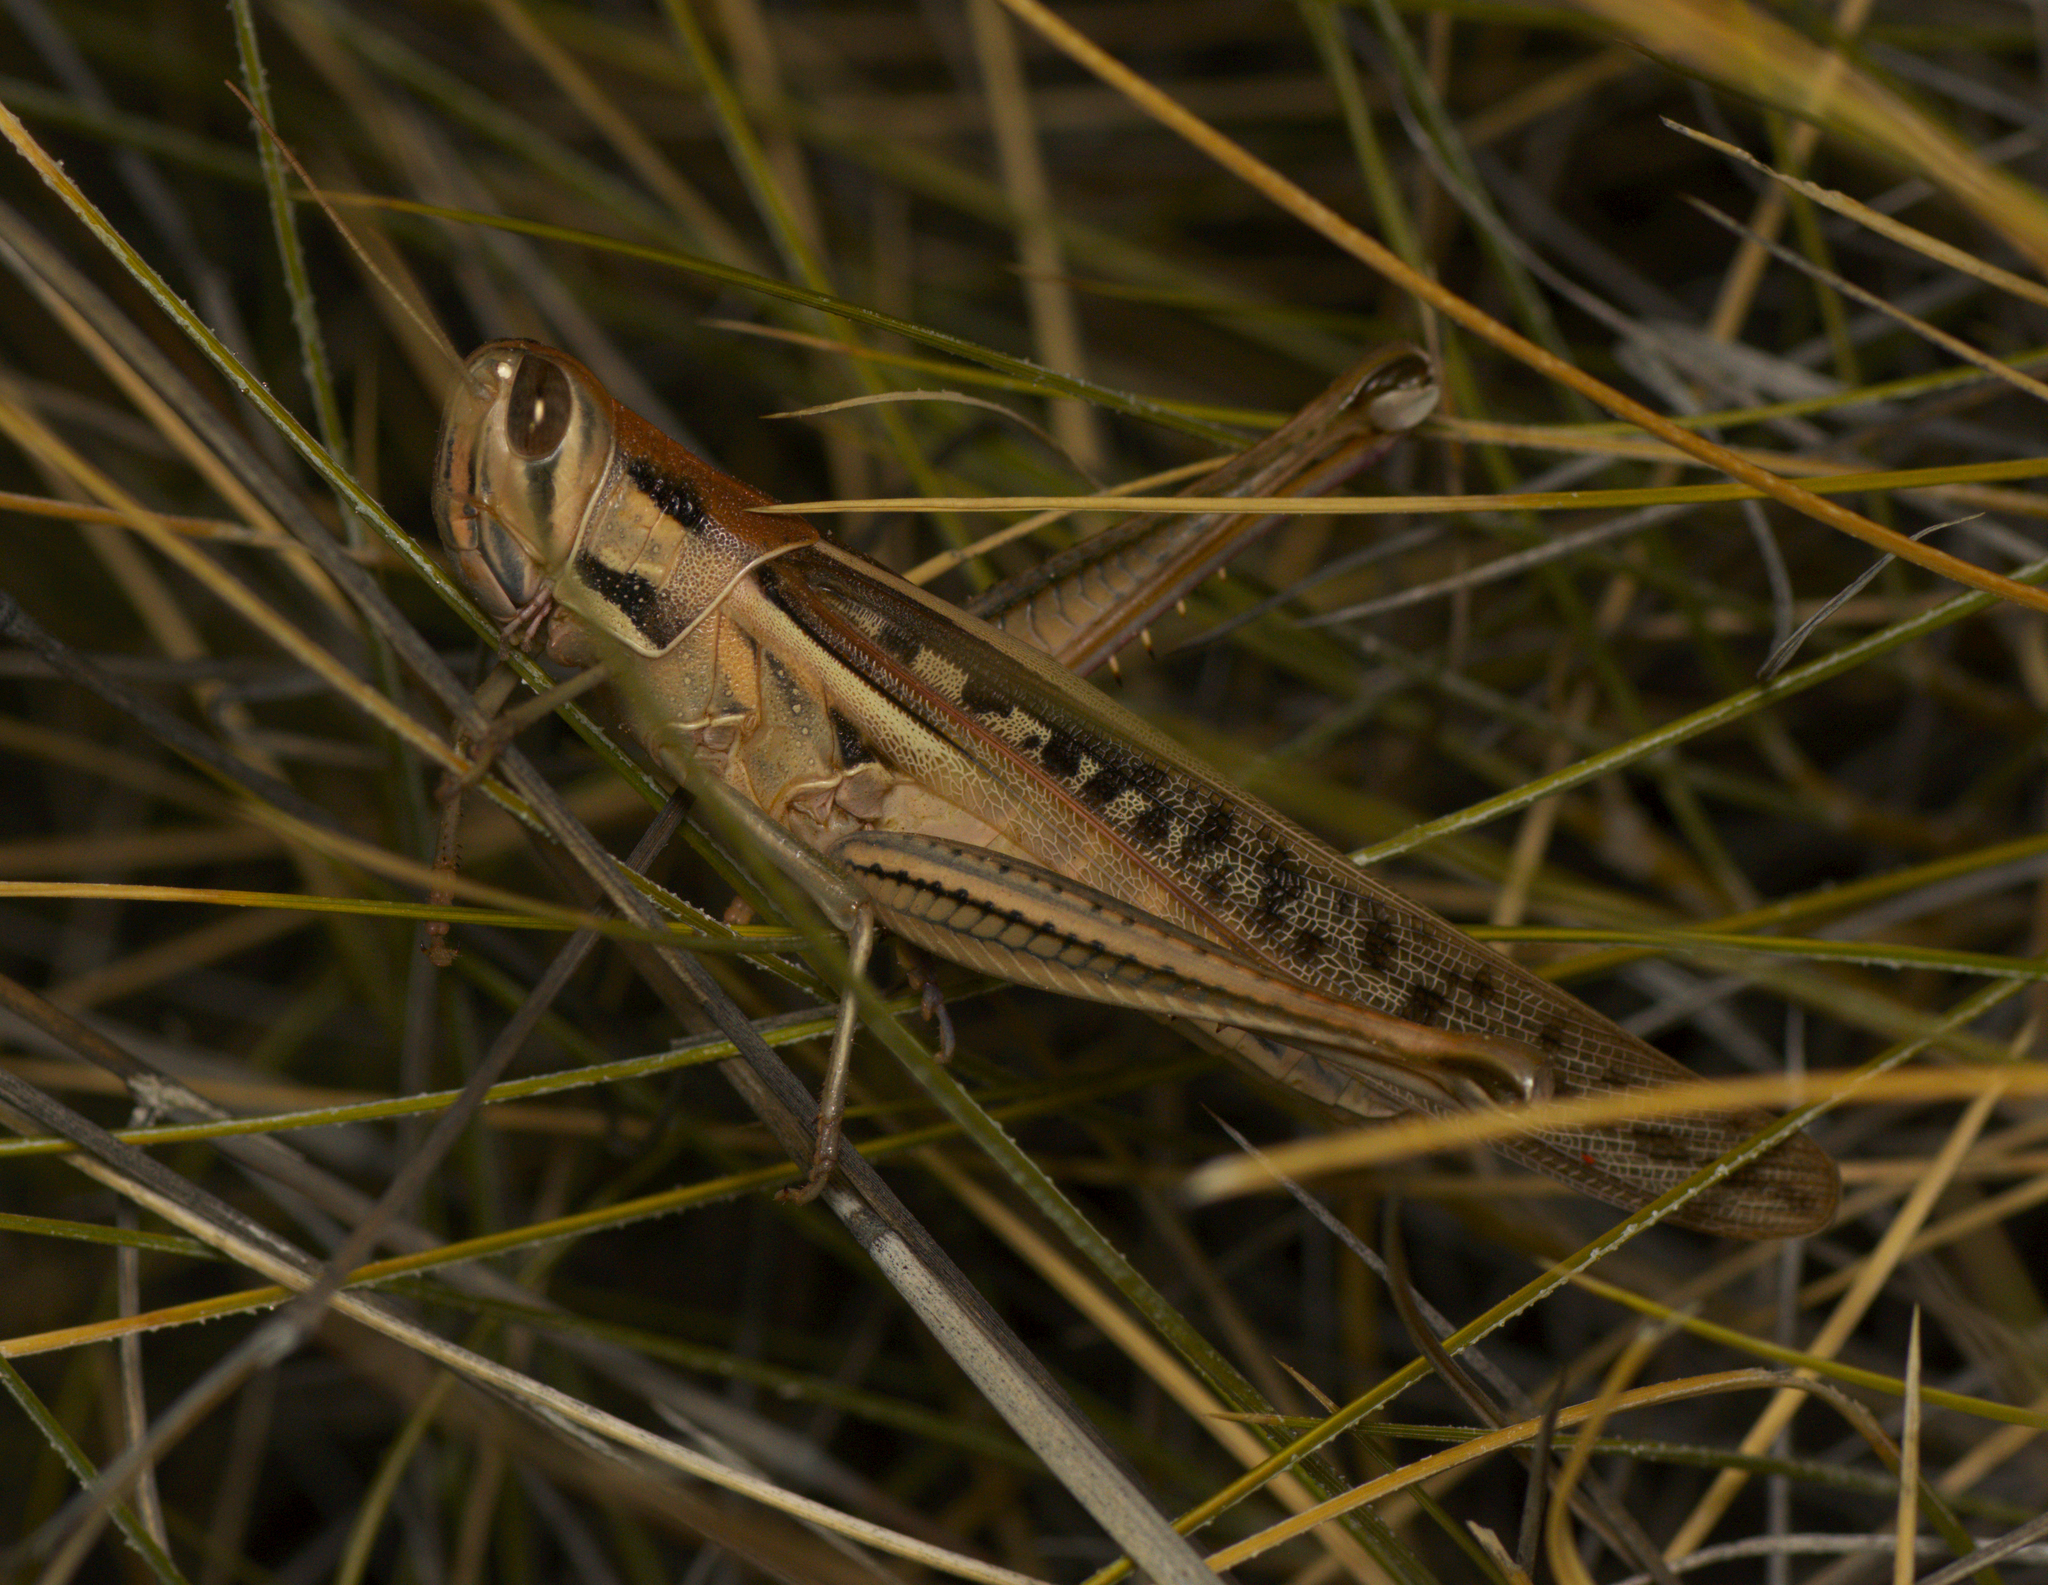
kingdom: Animalia
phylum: Arthropoda
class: Insecta
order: Orthoptera
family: Acrididae
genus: Austracris
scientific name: Austracris guttulosa
